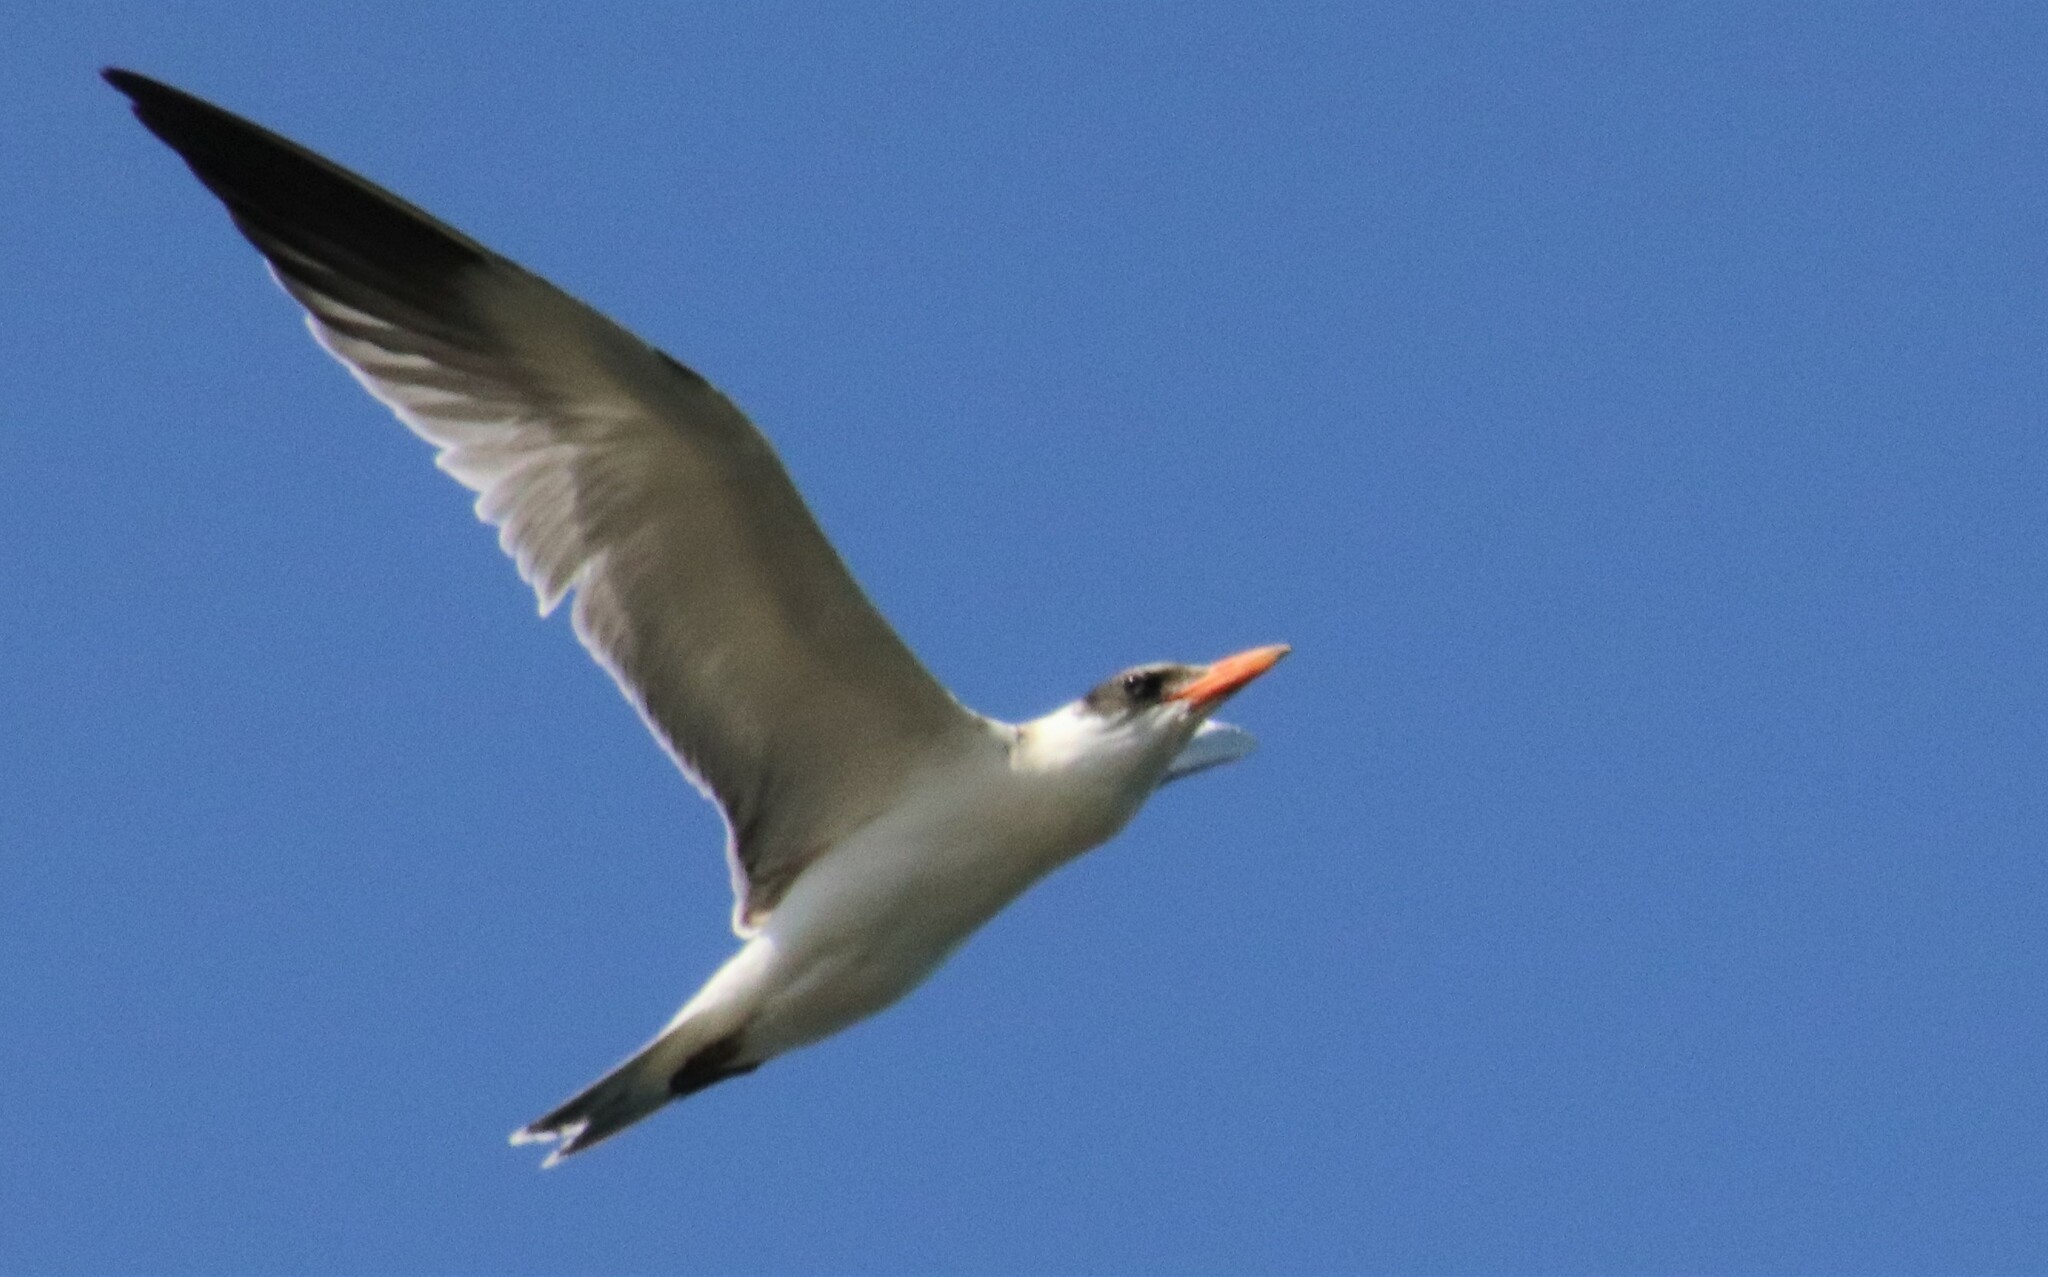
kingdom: Animalia
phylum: Chordata
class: Aves
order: Charadriiformes
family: Laridae
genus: Hydroprogne
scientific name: Hydroprogne caspia
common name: Caspian tern
